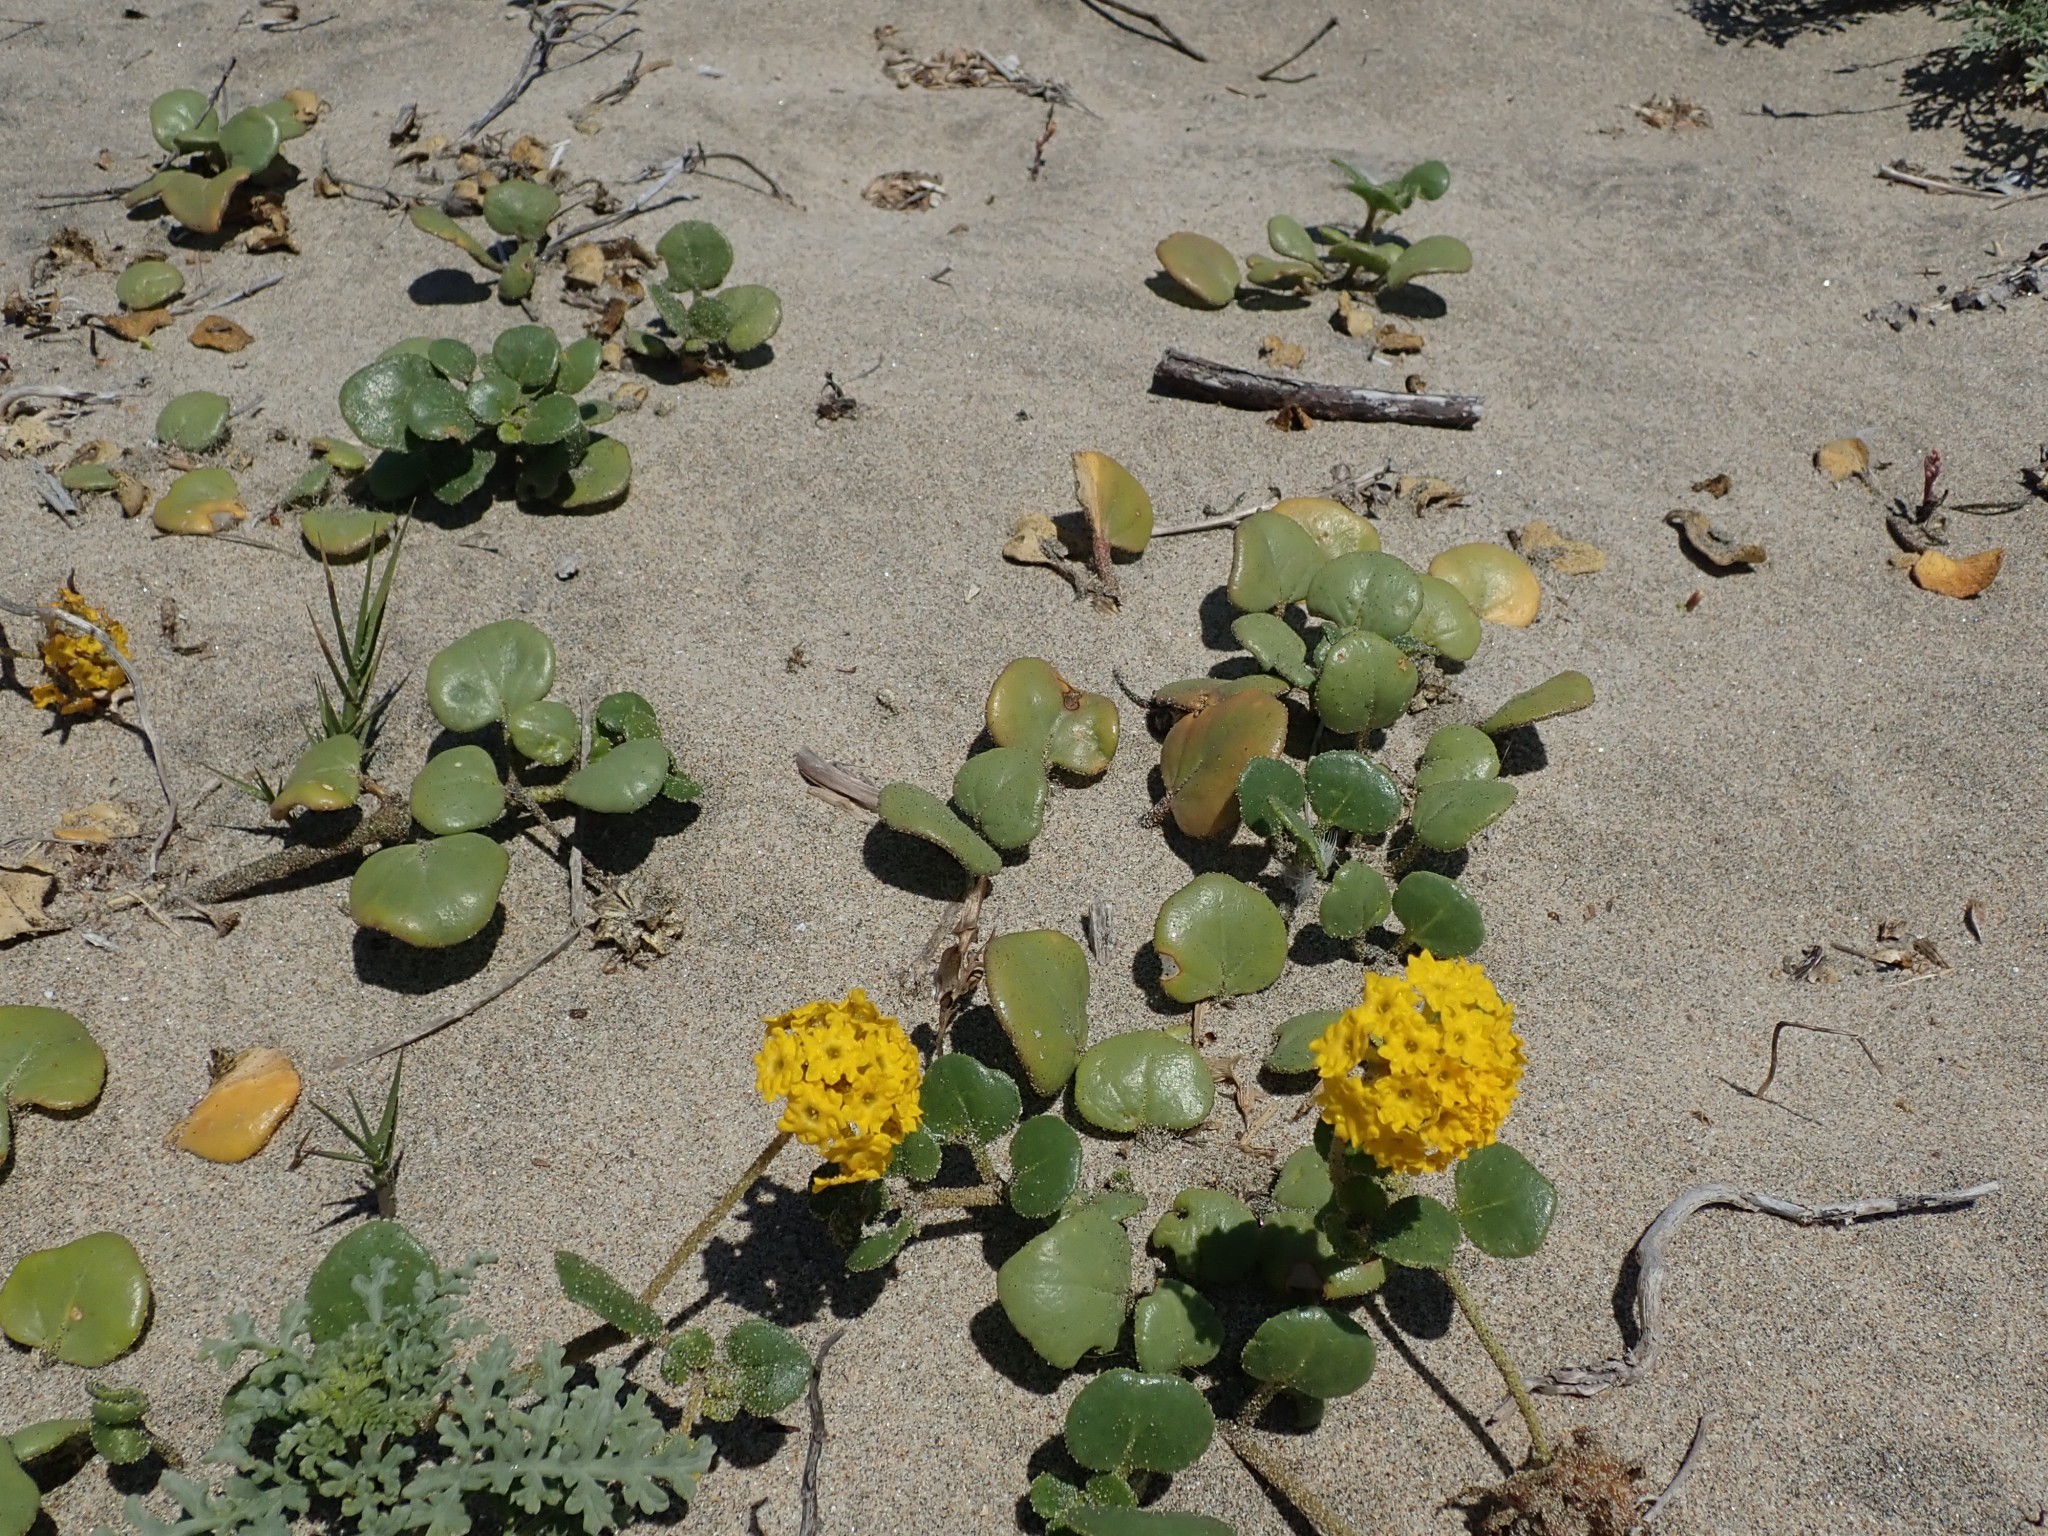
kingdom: Plantae
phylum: Tracheophyta
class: Magnoliopsida
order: Caryophyllales
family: Nyctaginaceae
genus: Abronia
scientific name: Abronia latifolia
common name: Yellow sand-verbena
